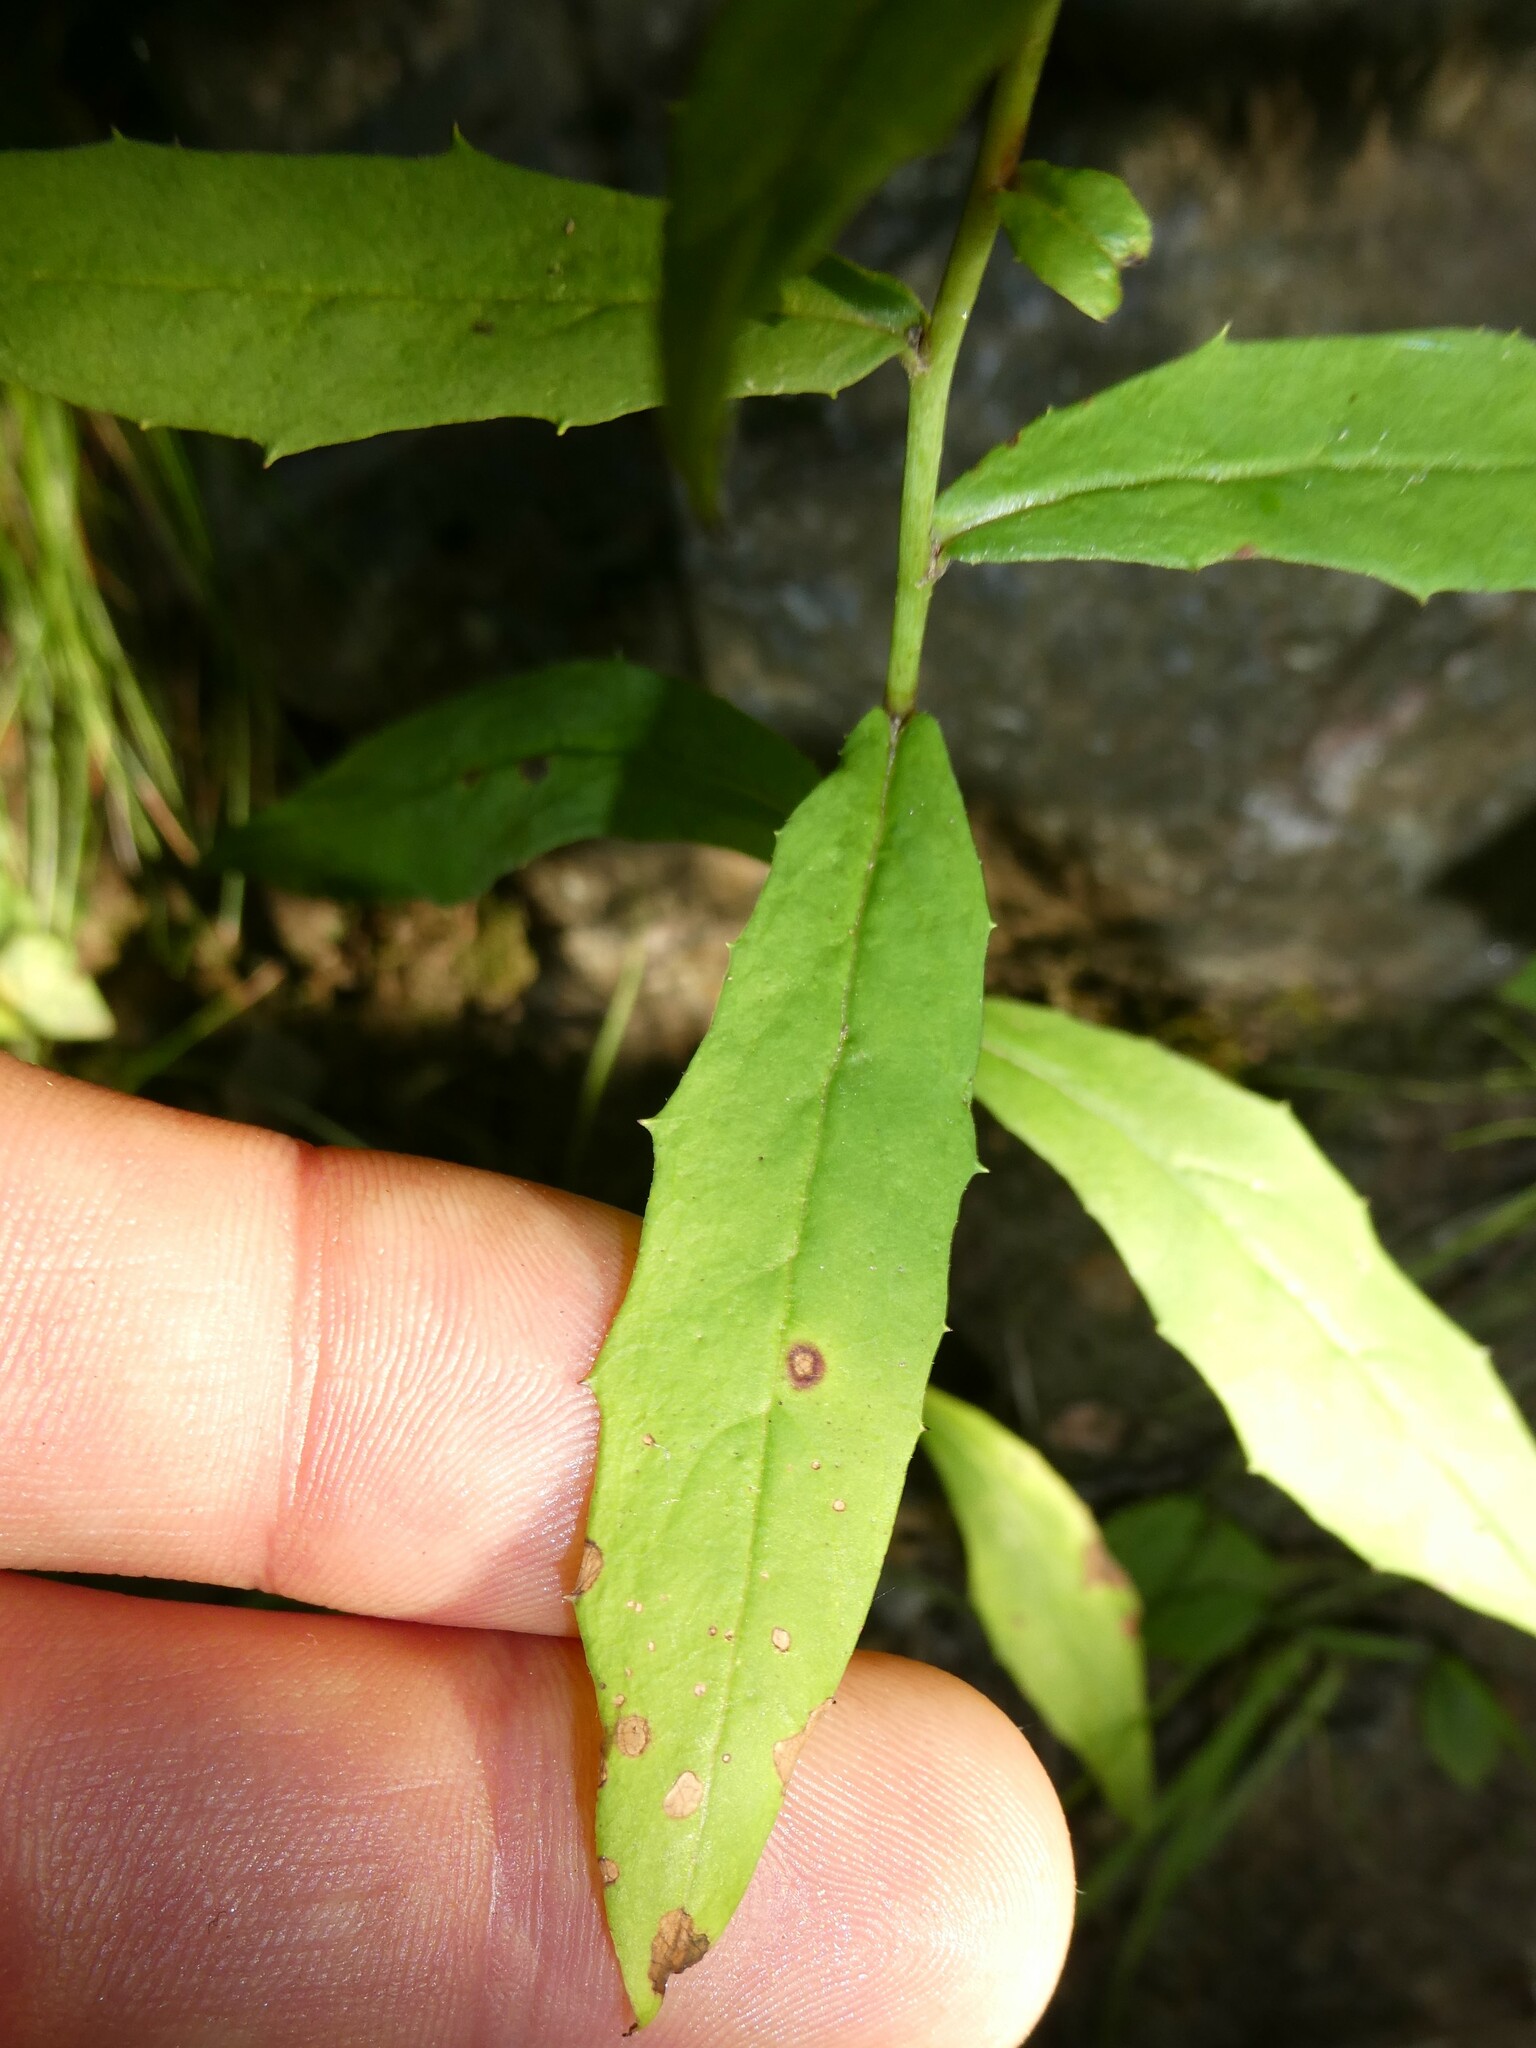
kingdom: Plantae
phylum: Tracheophyta
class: Magnoliopsida
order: Asterales
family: Asteraceae
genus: Hieracium
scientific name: Hieracium paniculatum
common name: Allegheny hawkweed
